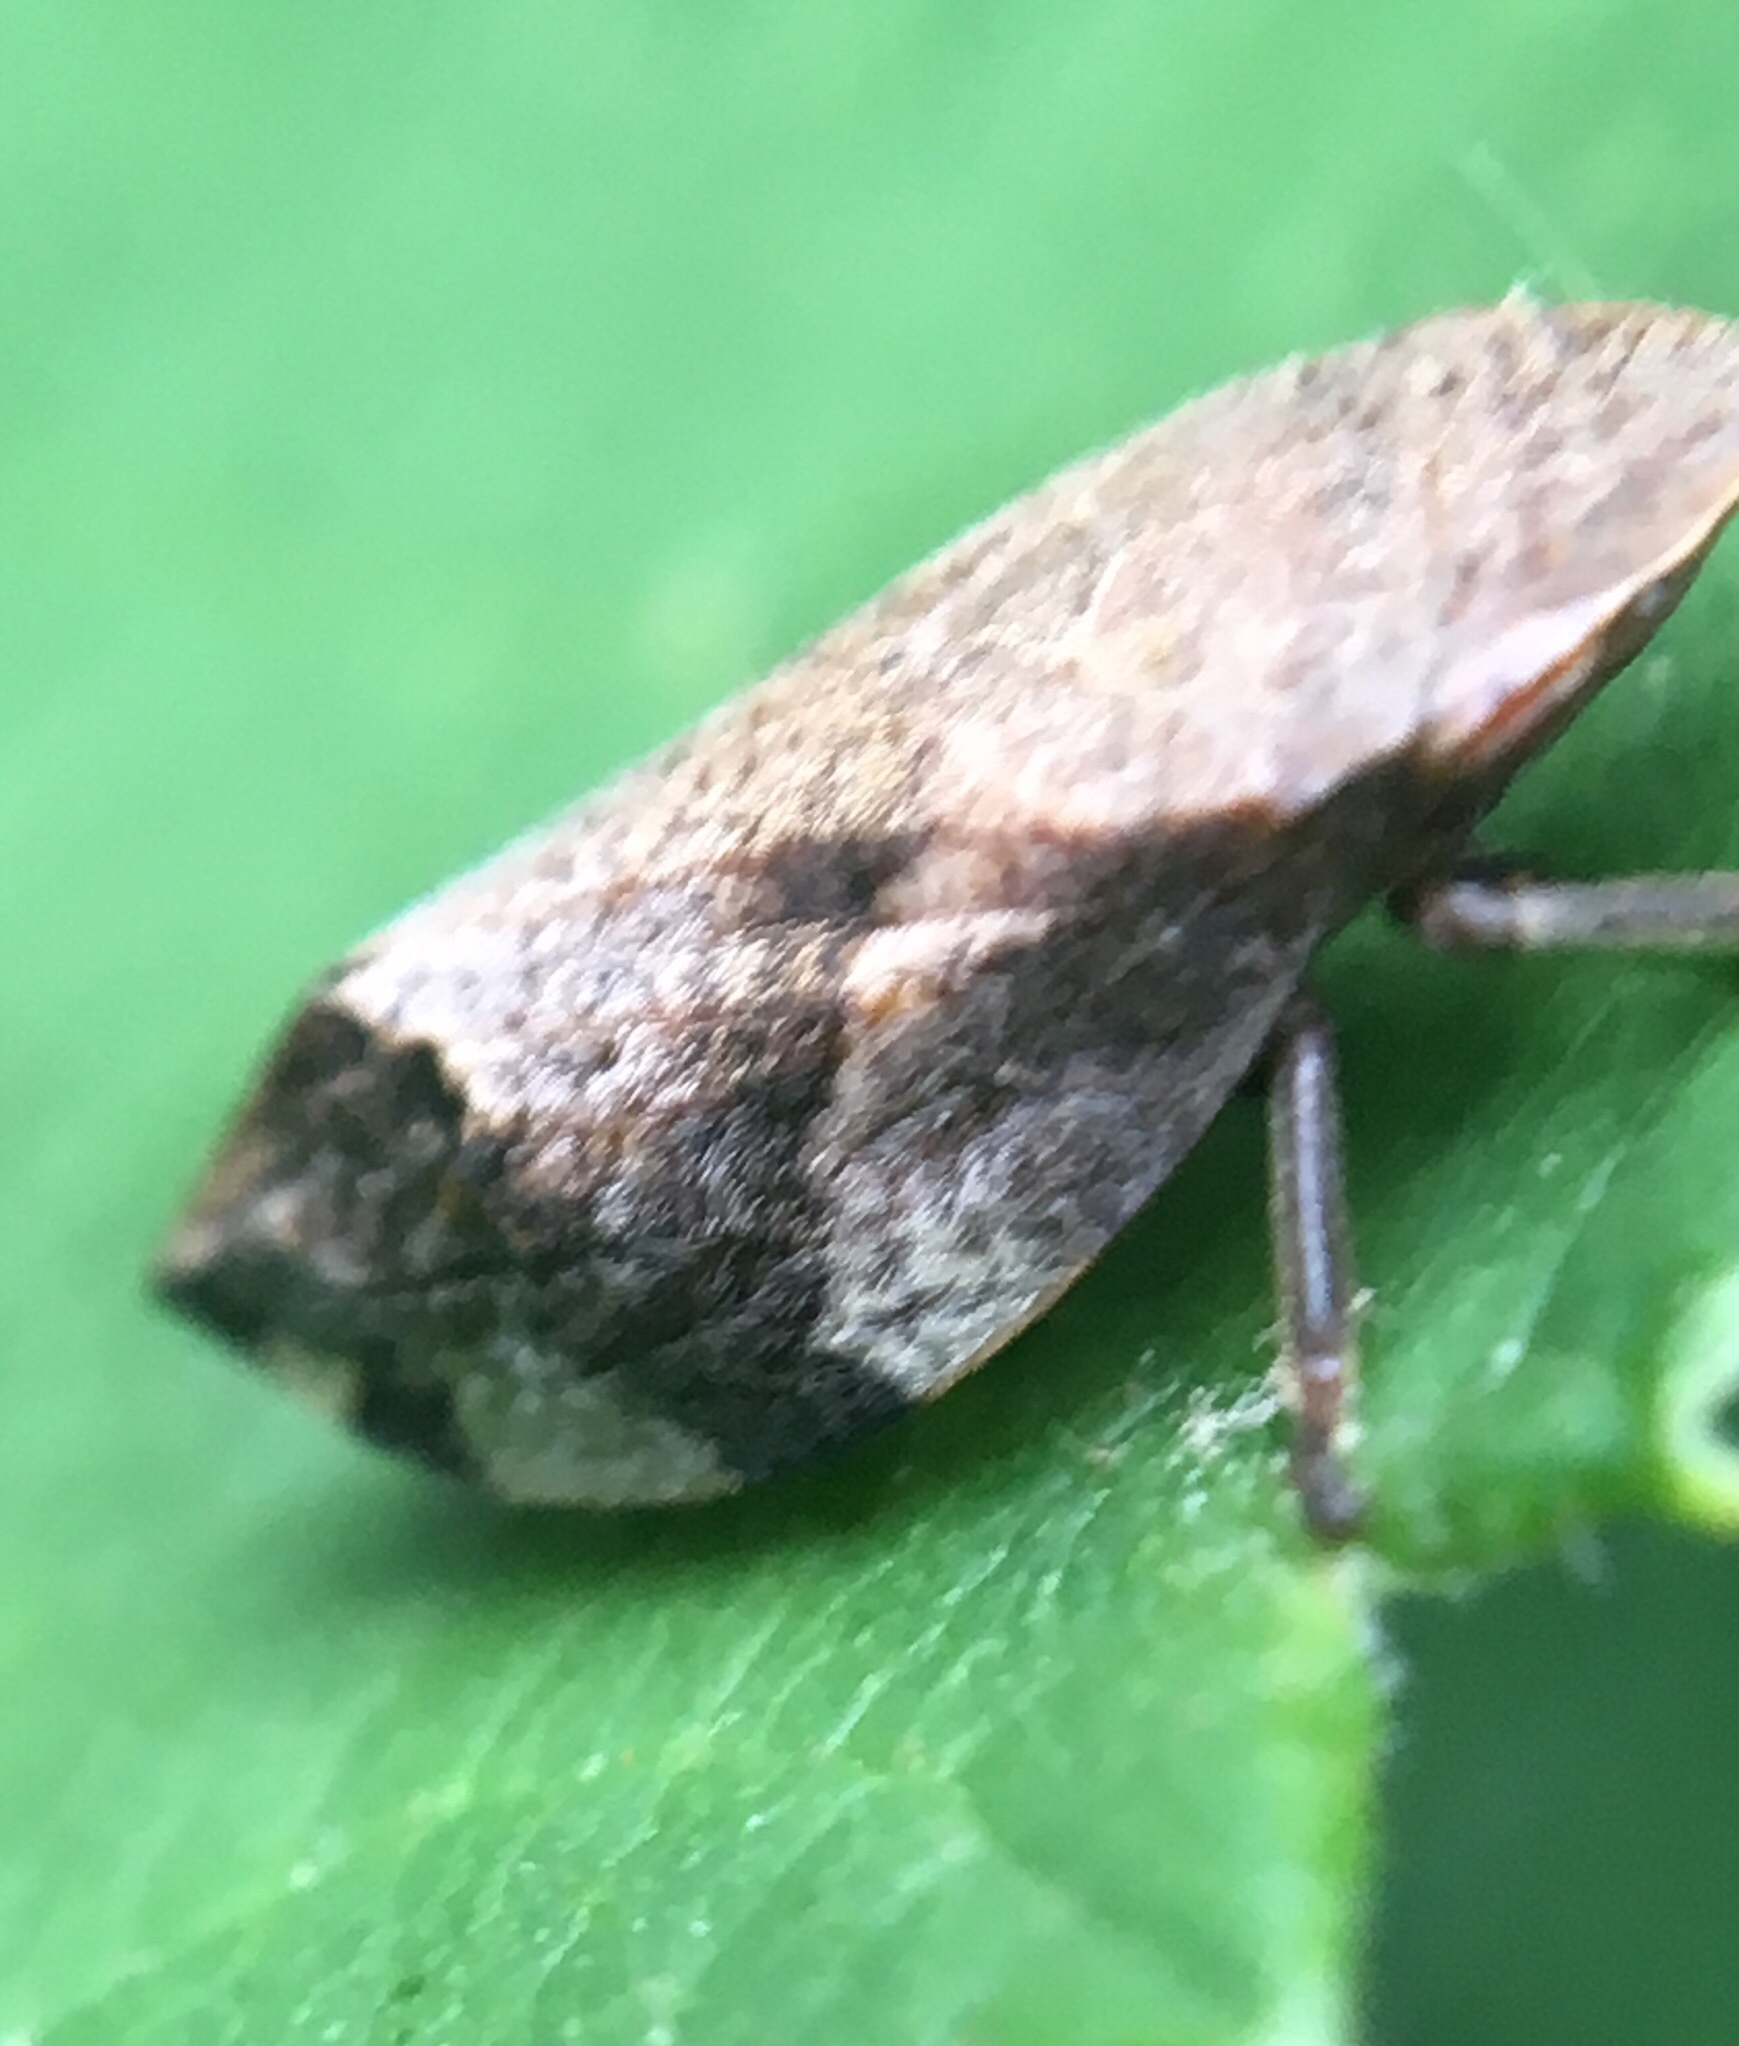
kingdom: Animalia
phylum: Arthropoda
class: Insecta
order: Hemiptera
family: Aphrophoridae
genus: Lepyronia
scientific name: Lepyronia quadrangularis
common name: Diamond-backed spittlebug
